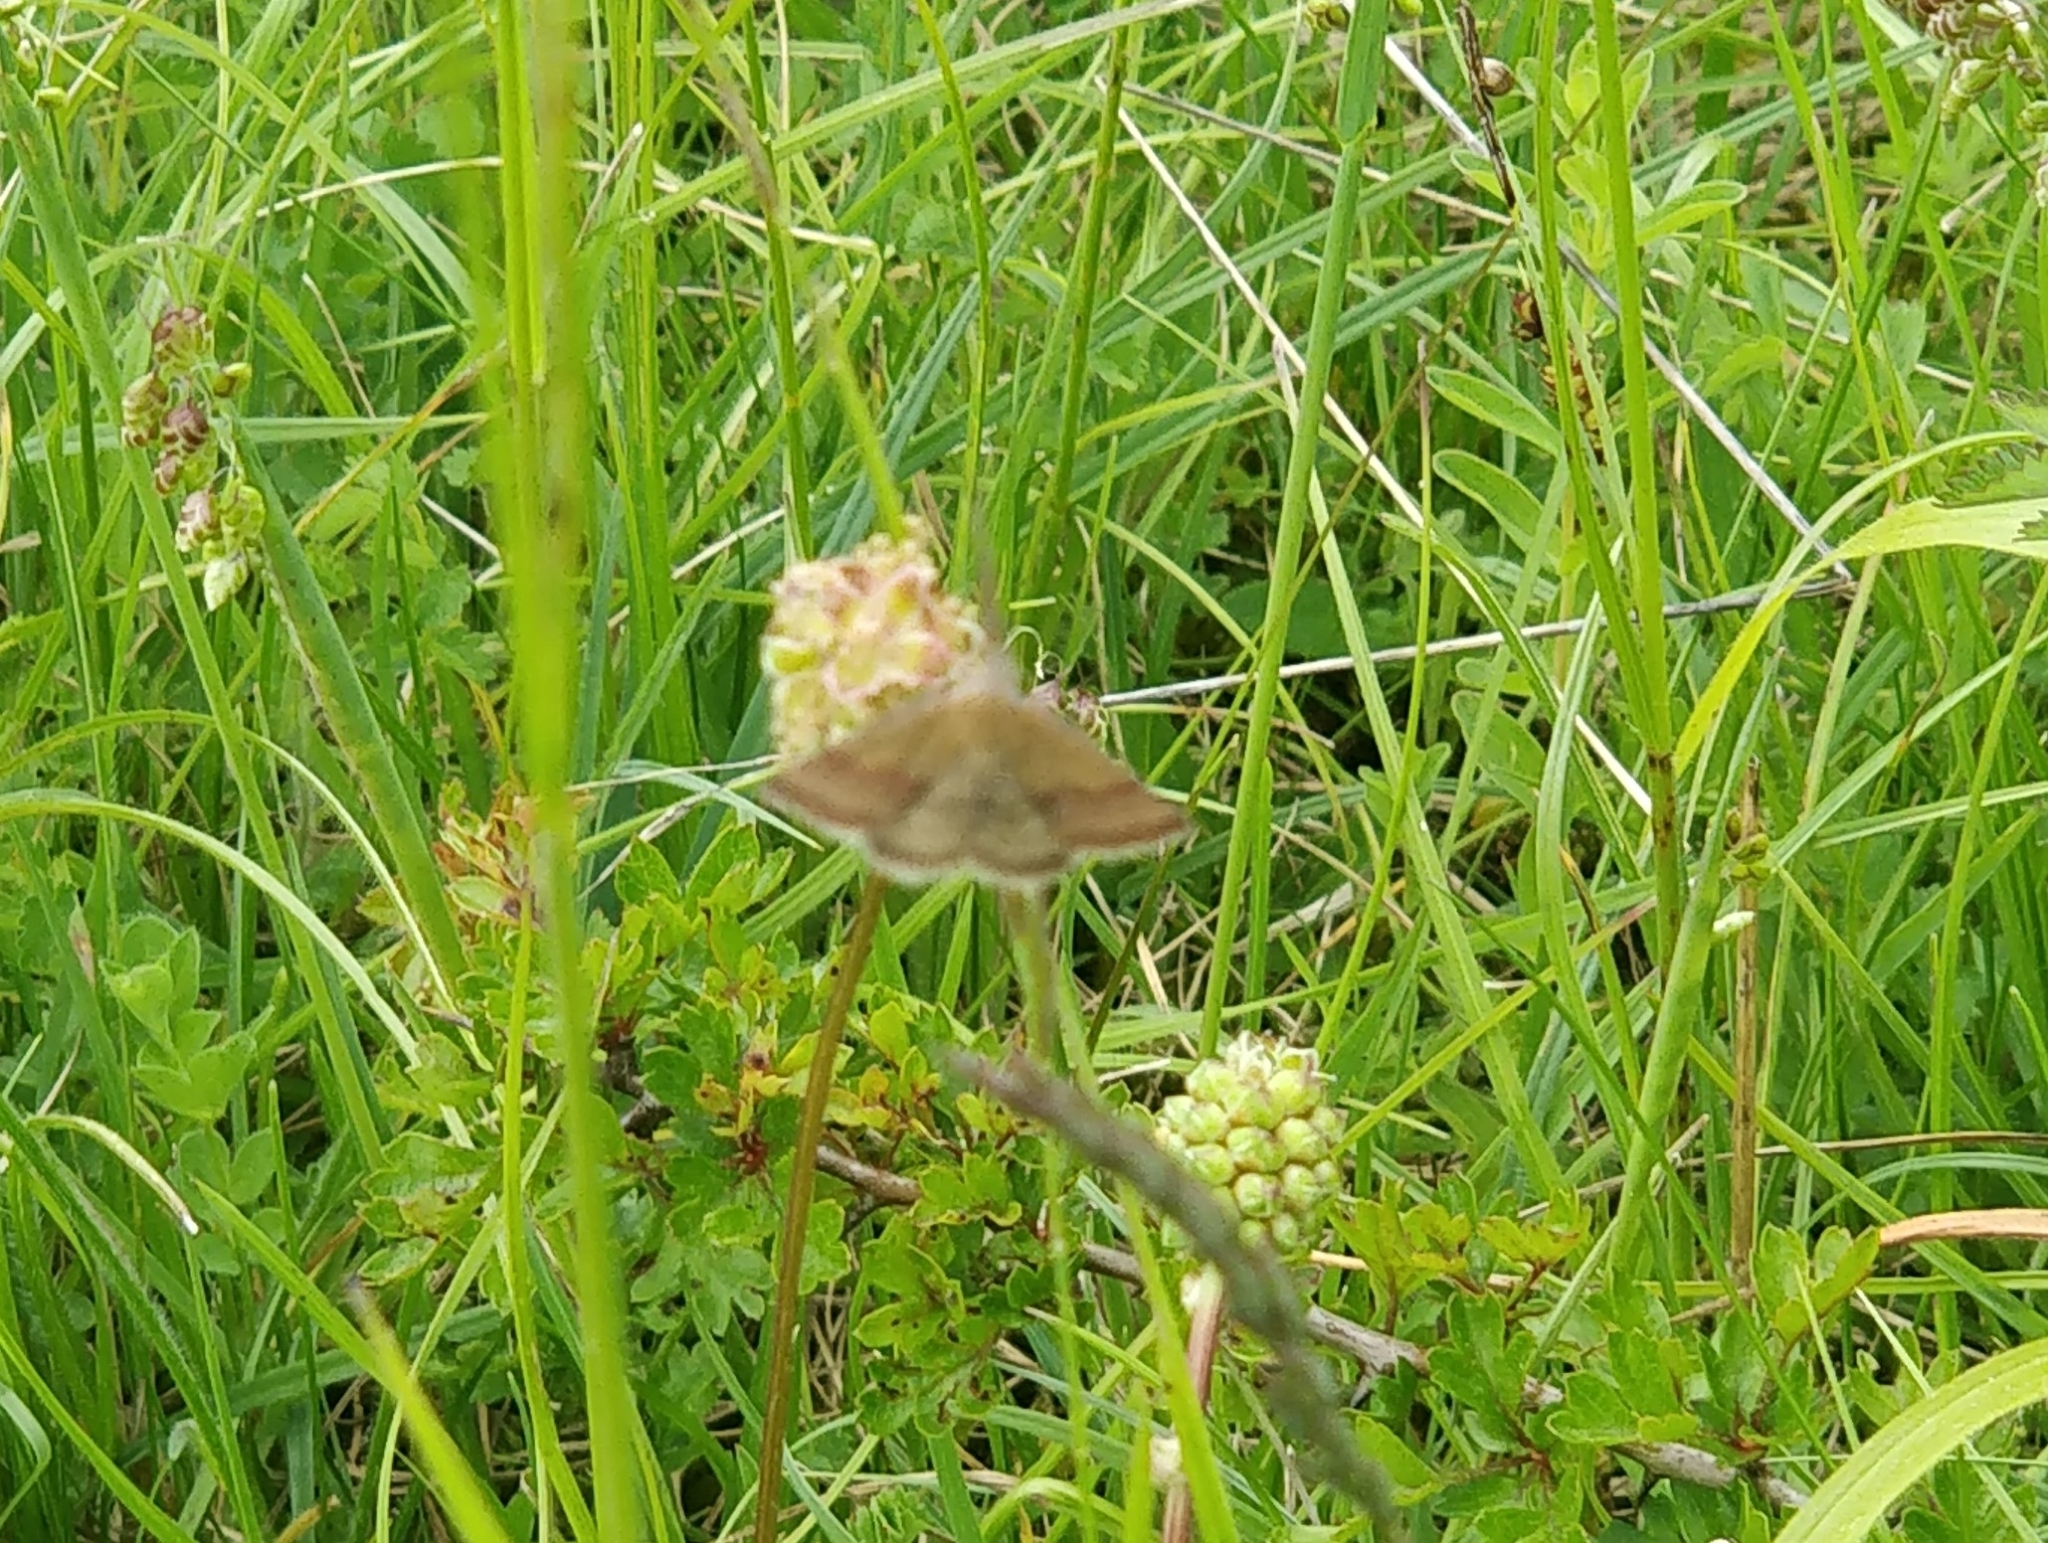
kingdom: Animalia
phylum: Arthropoda
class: Insecta
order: Lepidoptera
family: Erebidae
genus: Phytometra
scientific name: Phytometra viridaria
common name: Small purple-barred
